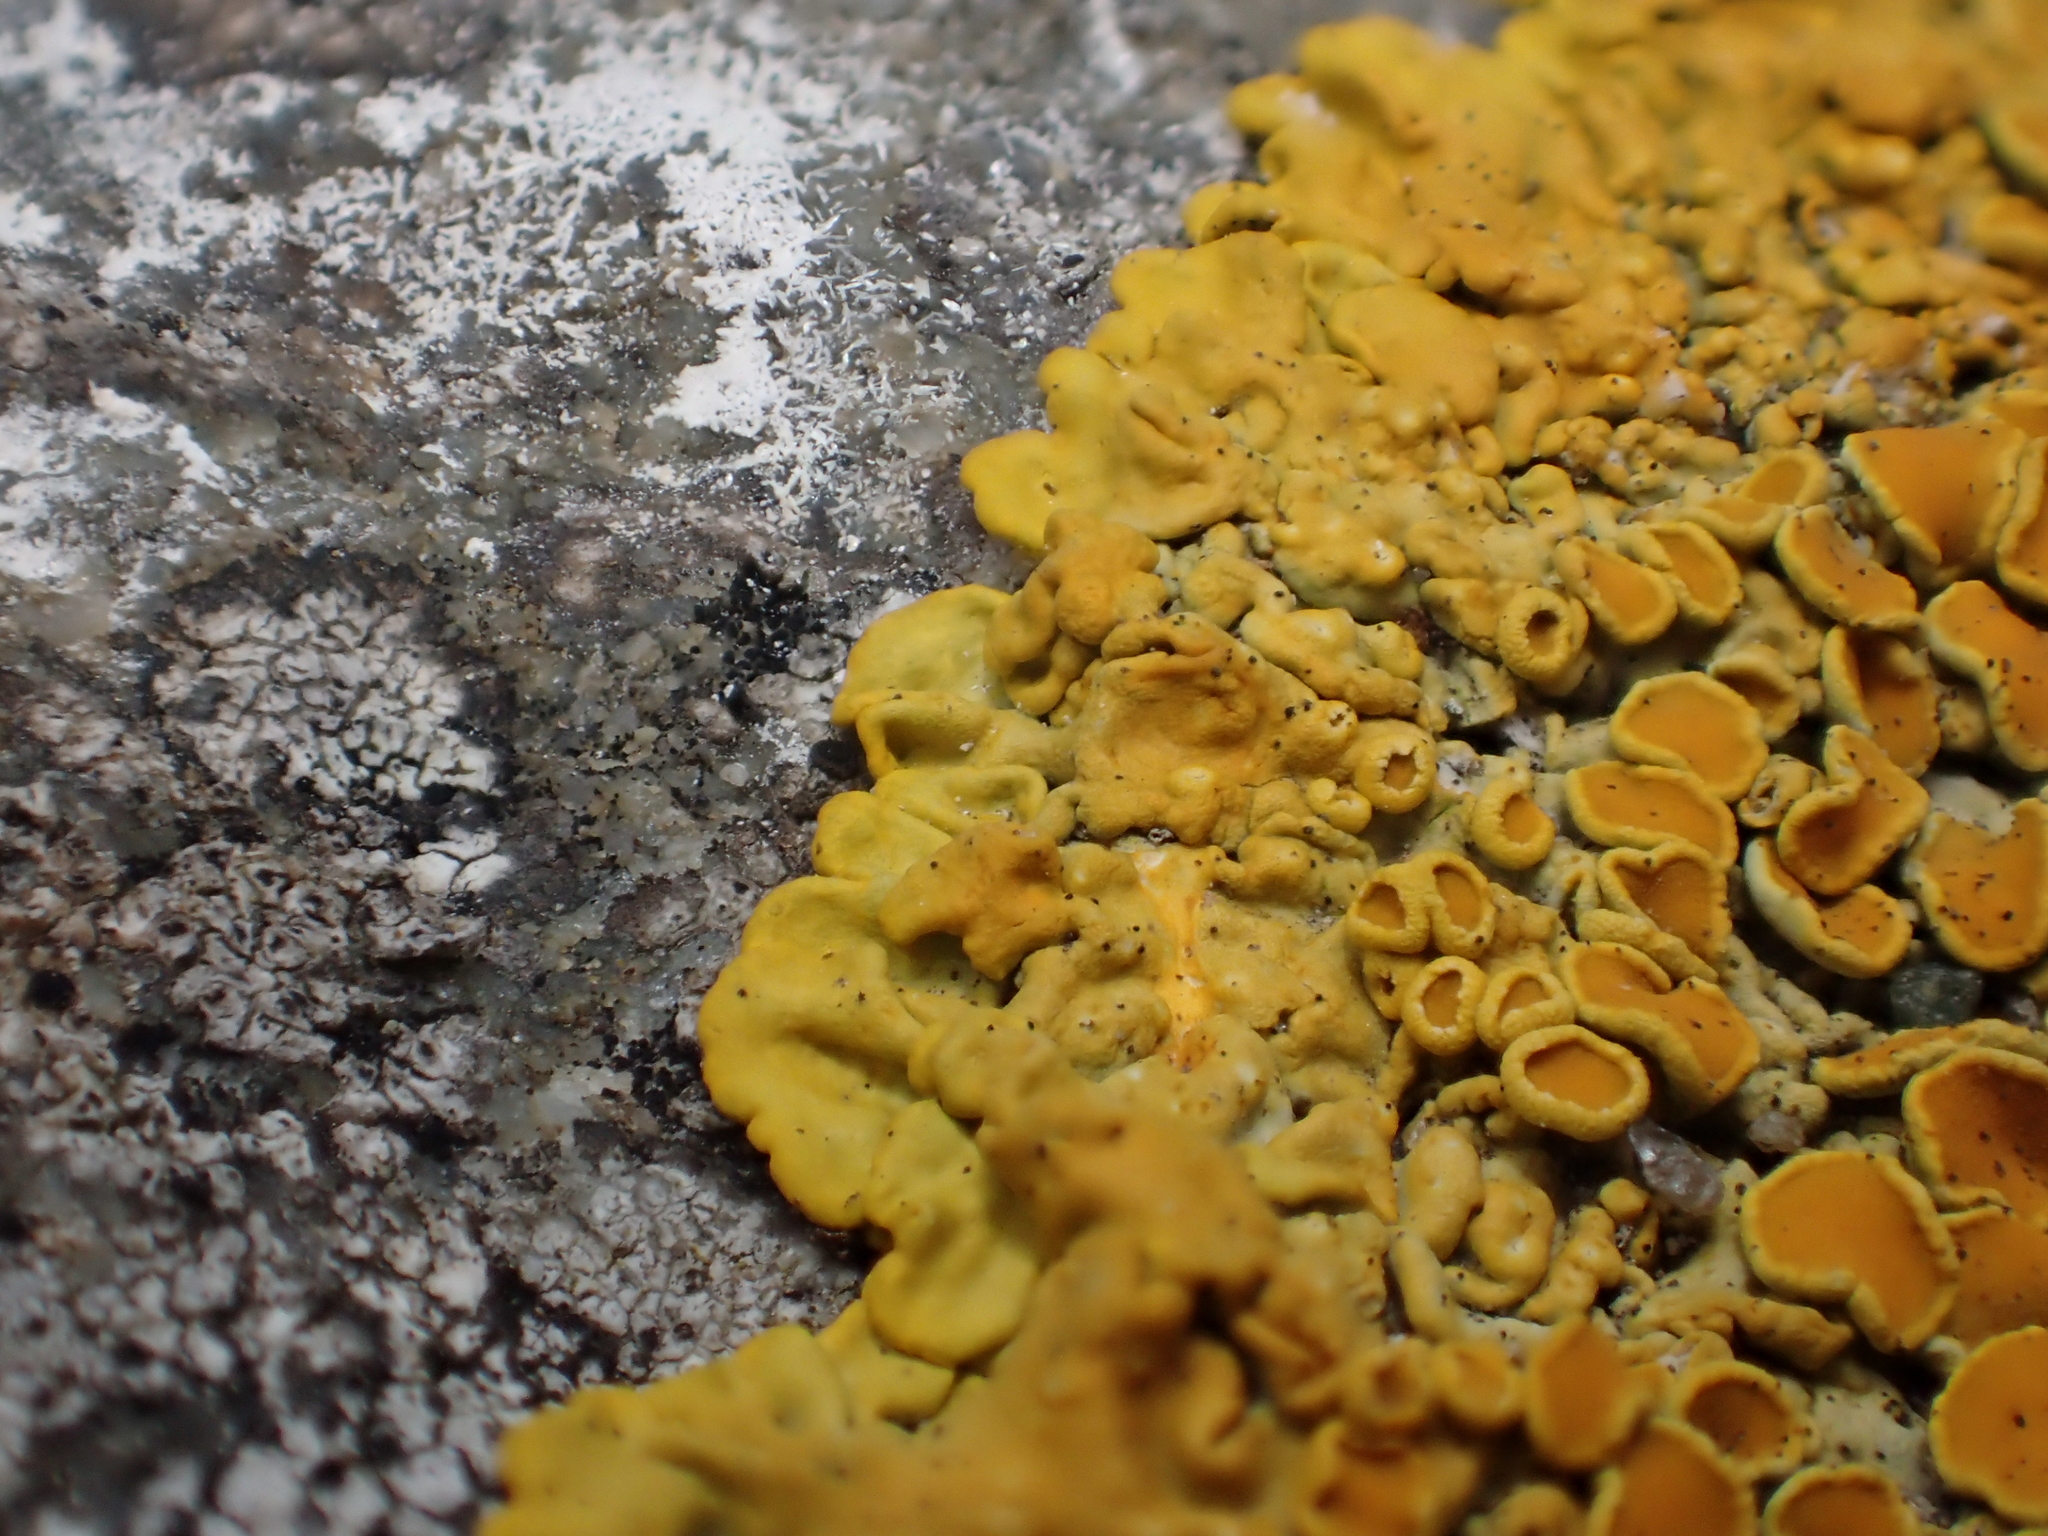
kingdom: Fungi
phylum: Ascomycota
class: Lecanoromycetes
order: Teloschistales
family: Teloschistaceae
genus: Xanthoria
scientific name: Xanthoria parietina
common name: Common orange lichen
